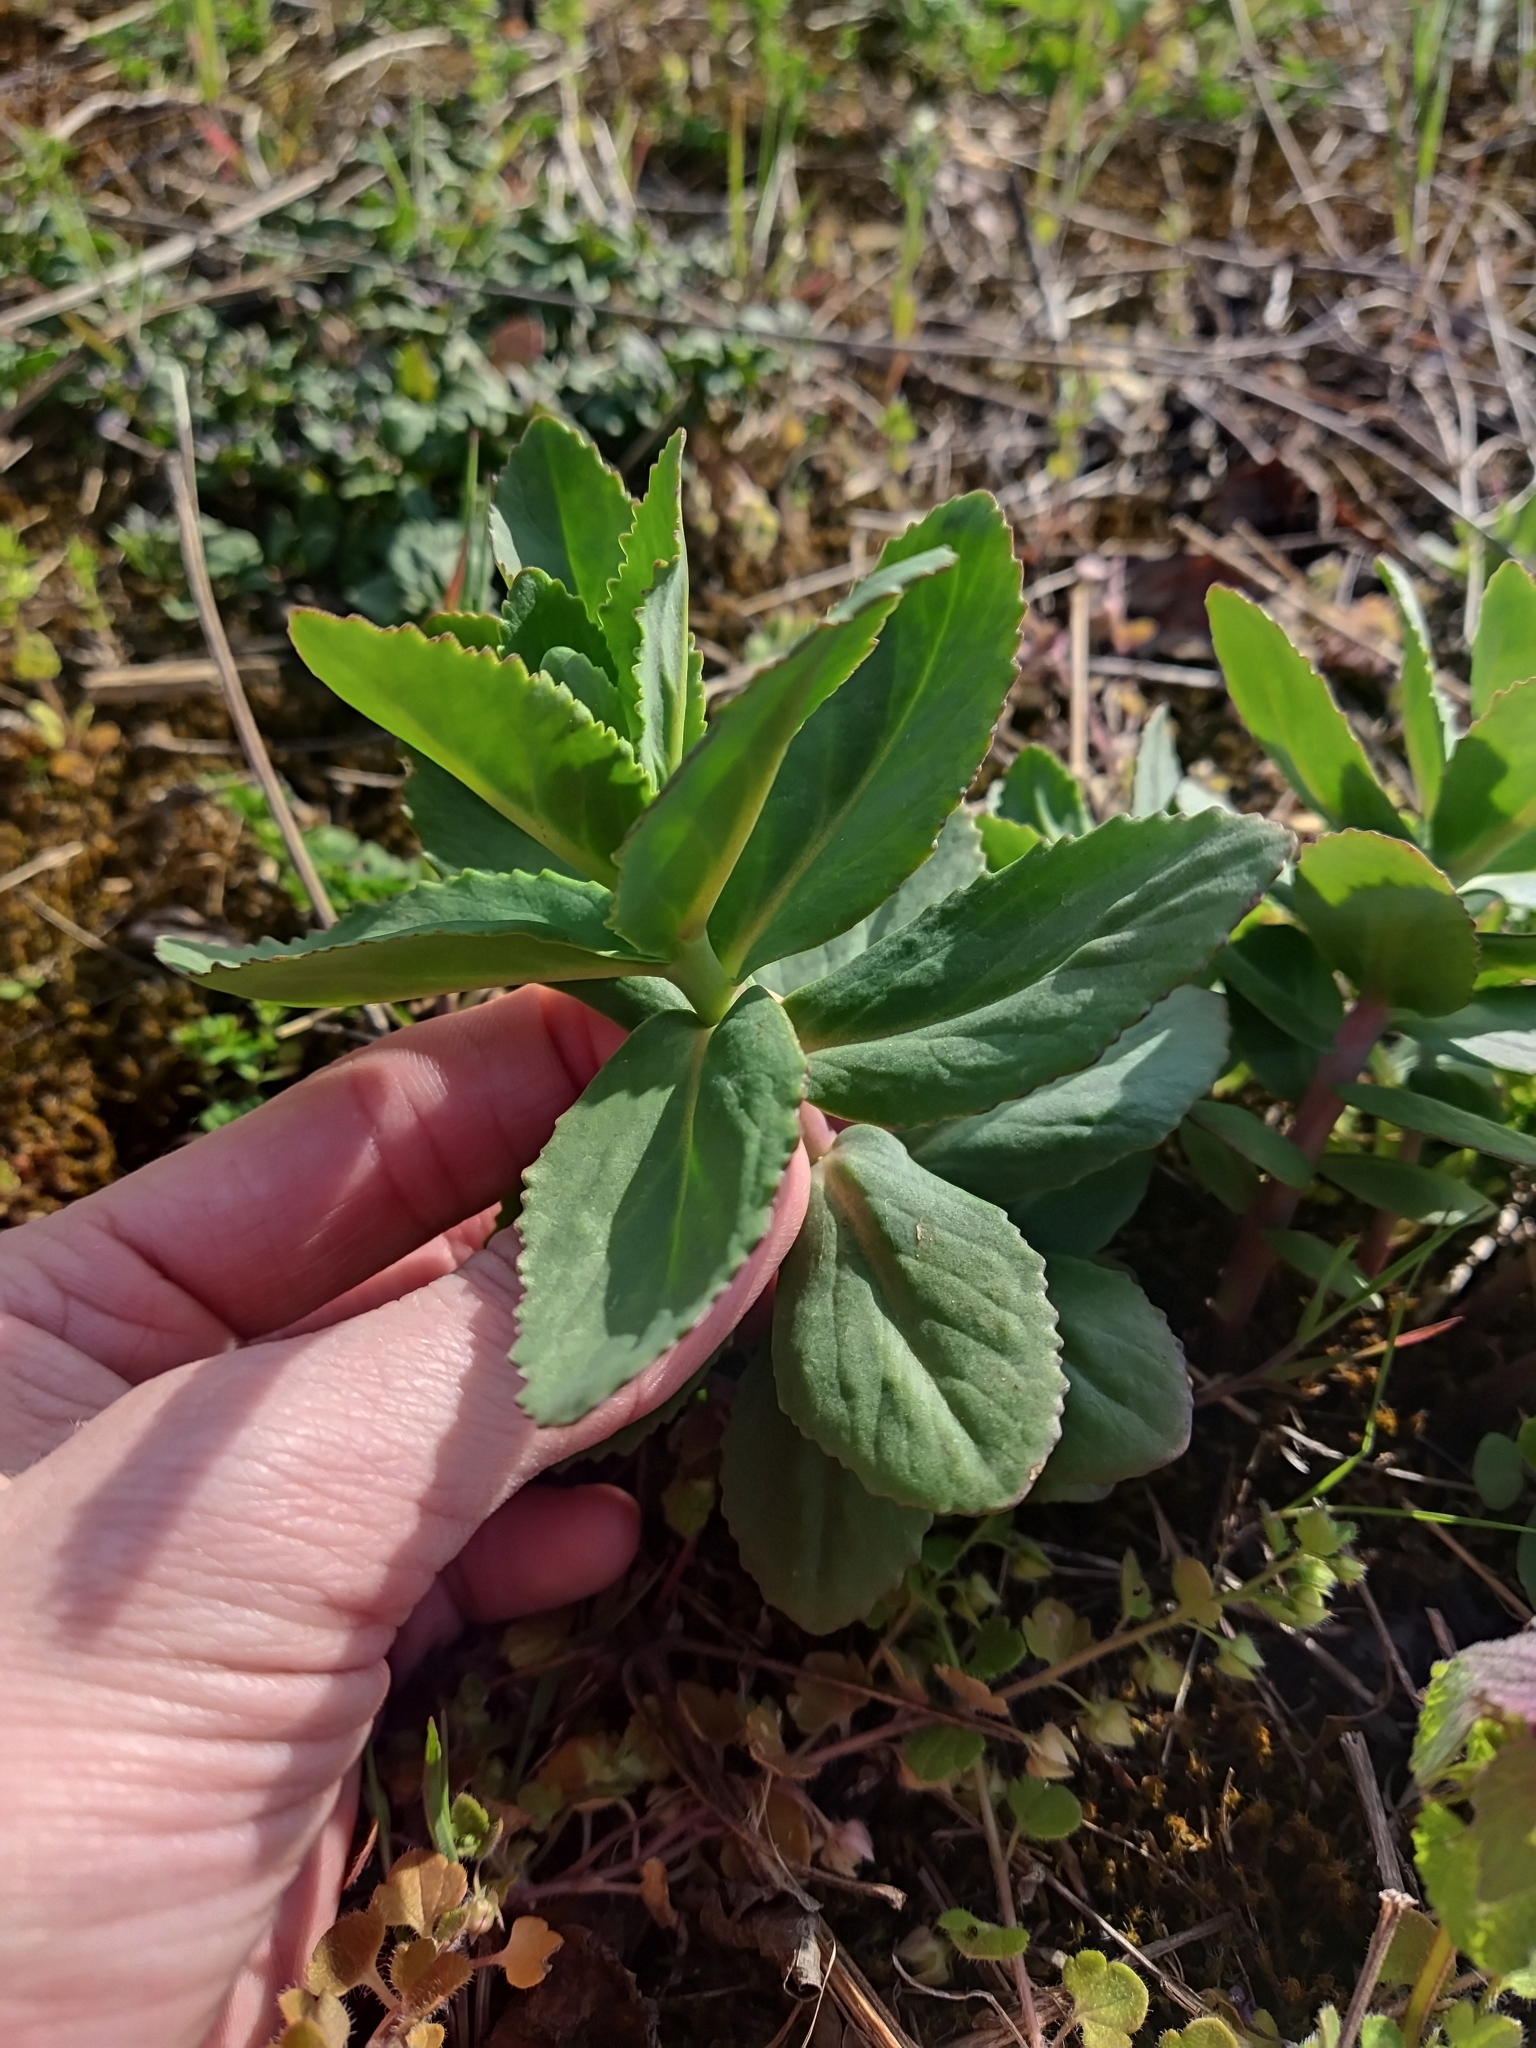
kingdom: Plantae
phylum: Tracheophyta
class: Magnoliopsida
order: Saxifragales
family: Crassulaceae
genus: Hylotelephium
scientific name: Hylotelephium maximum
